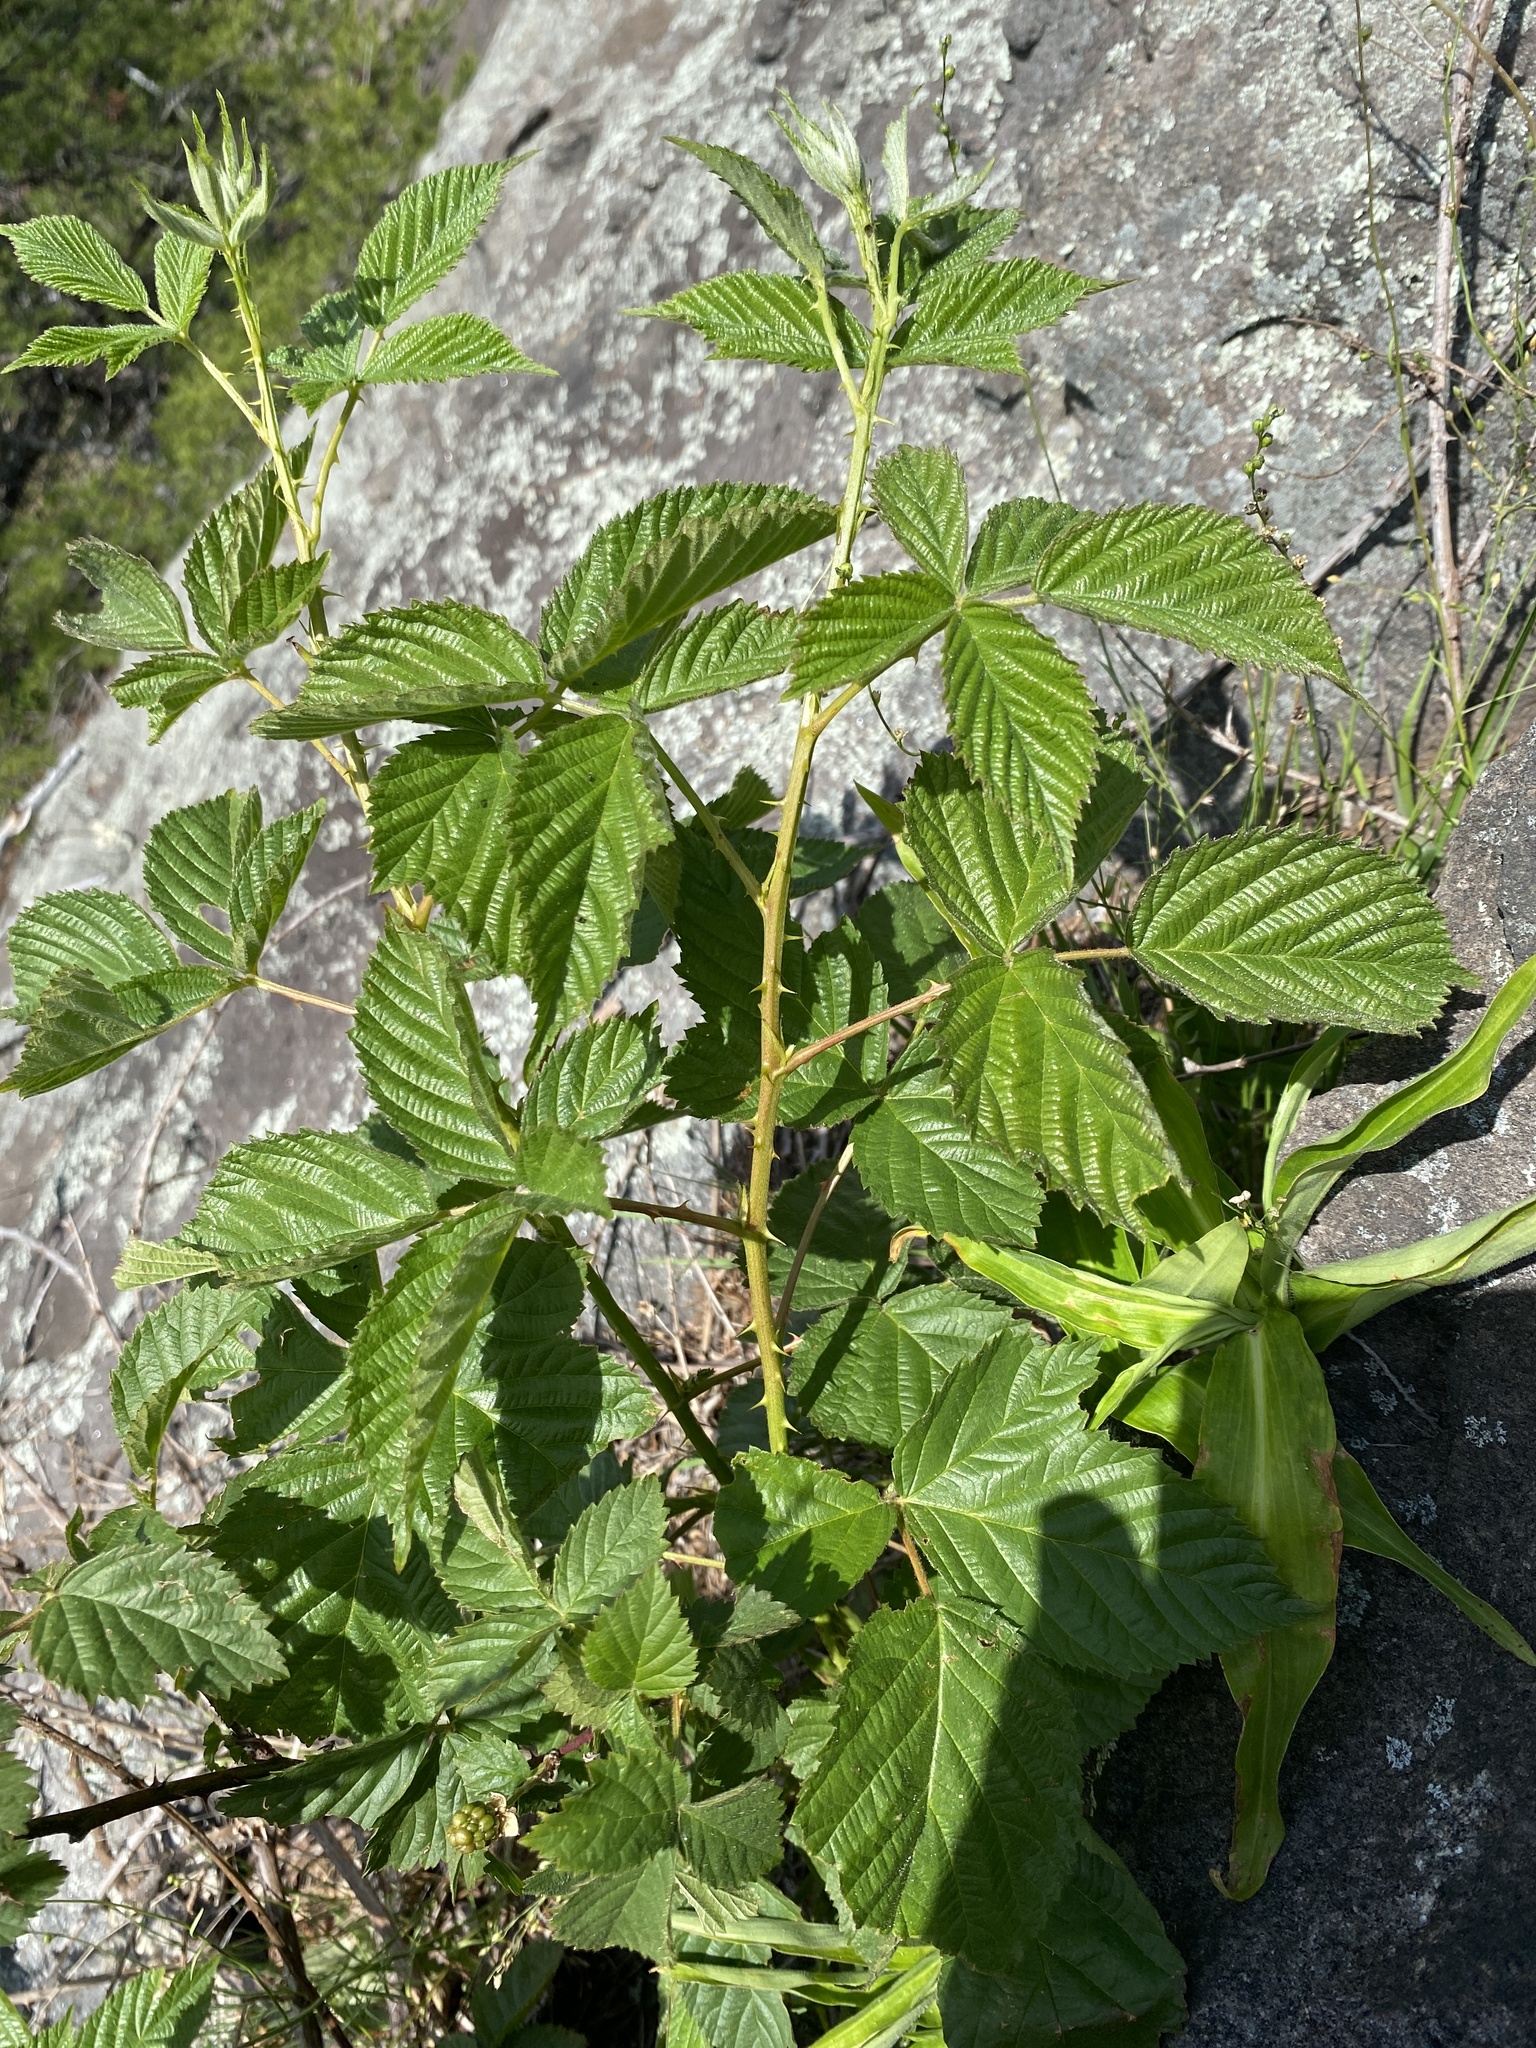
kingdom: Plantae
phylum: Tracheophyta
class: Magnoliopsida
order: Rosales
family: Rosaceae
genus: Rubus
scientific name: Rubus pensilvanicus
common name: Pennsylvania blackberry
